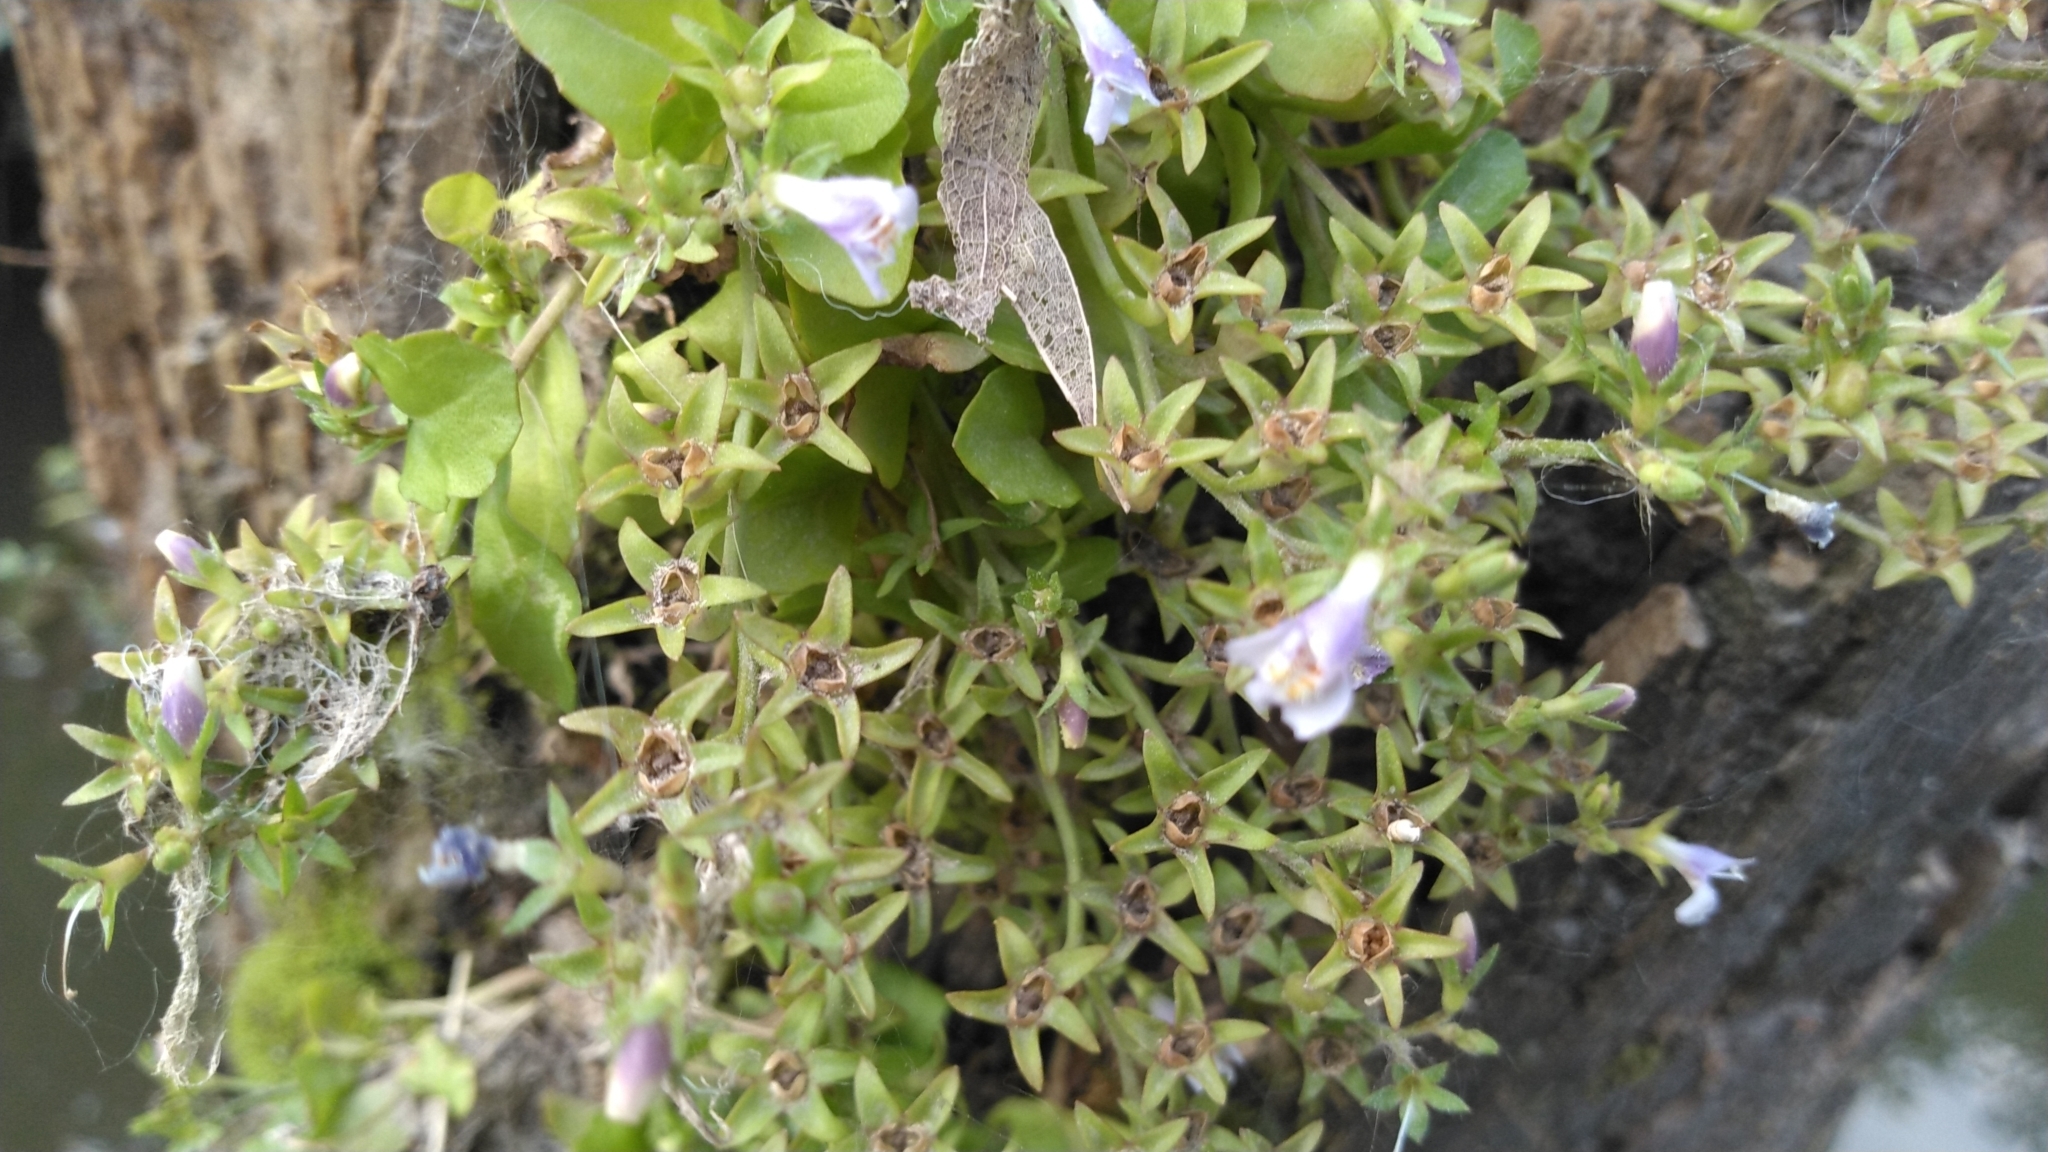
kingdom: Plantae
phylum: Tracheophyta
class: Magnoliopsida
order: Lamiales
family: Mazaceae
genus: Mazus
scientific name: Mazus pumilus
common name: Japanese mazus
